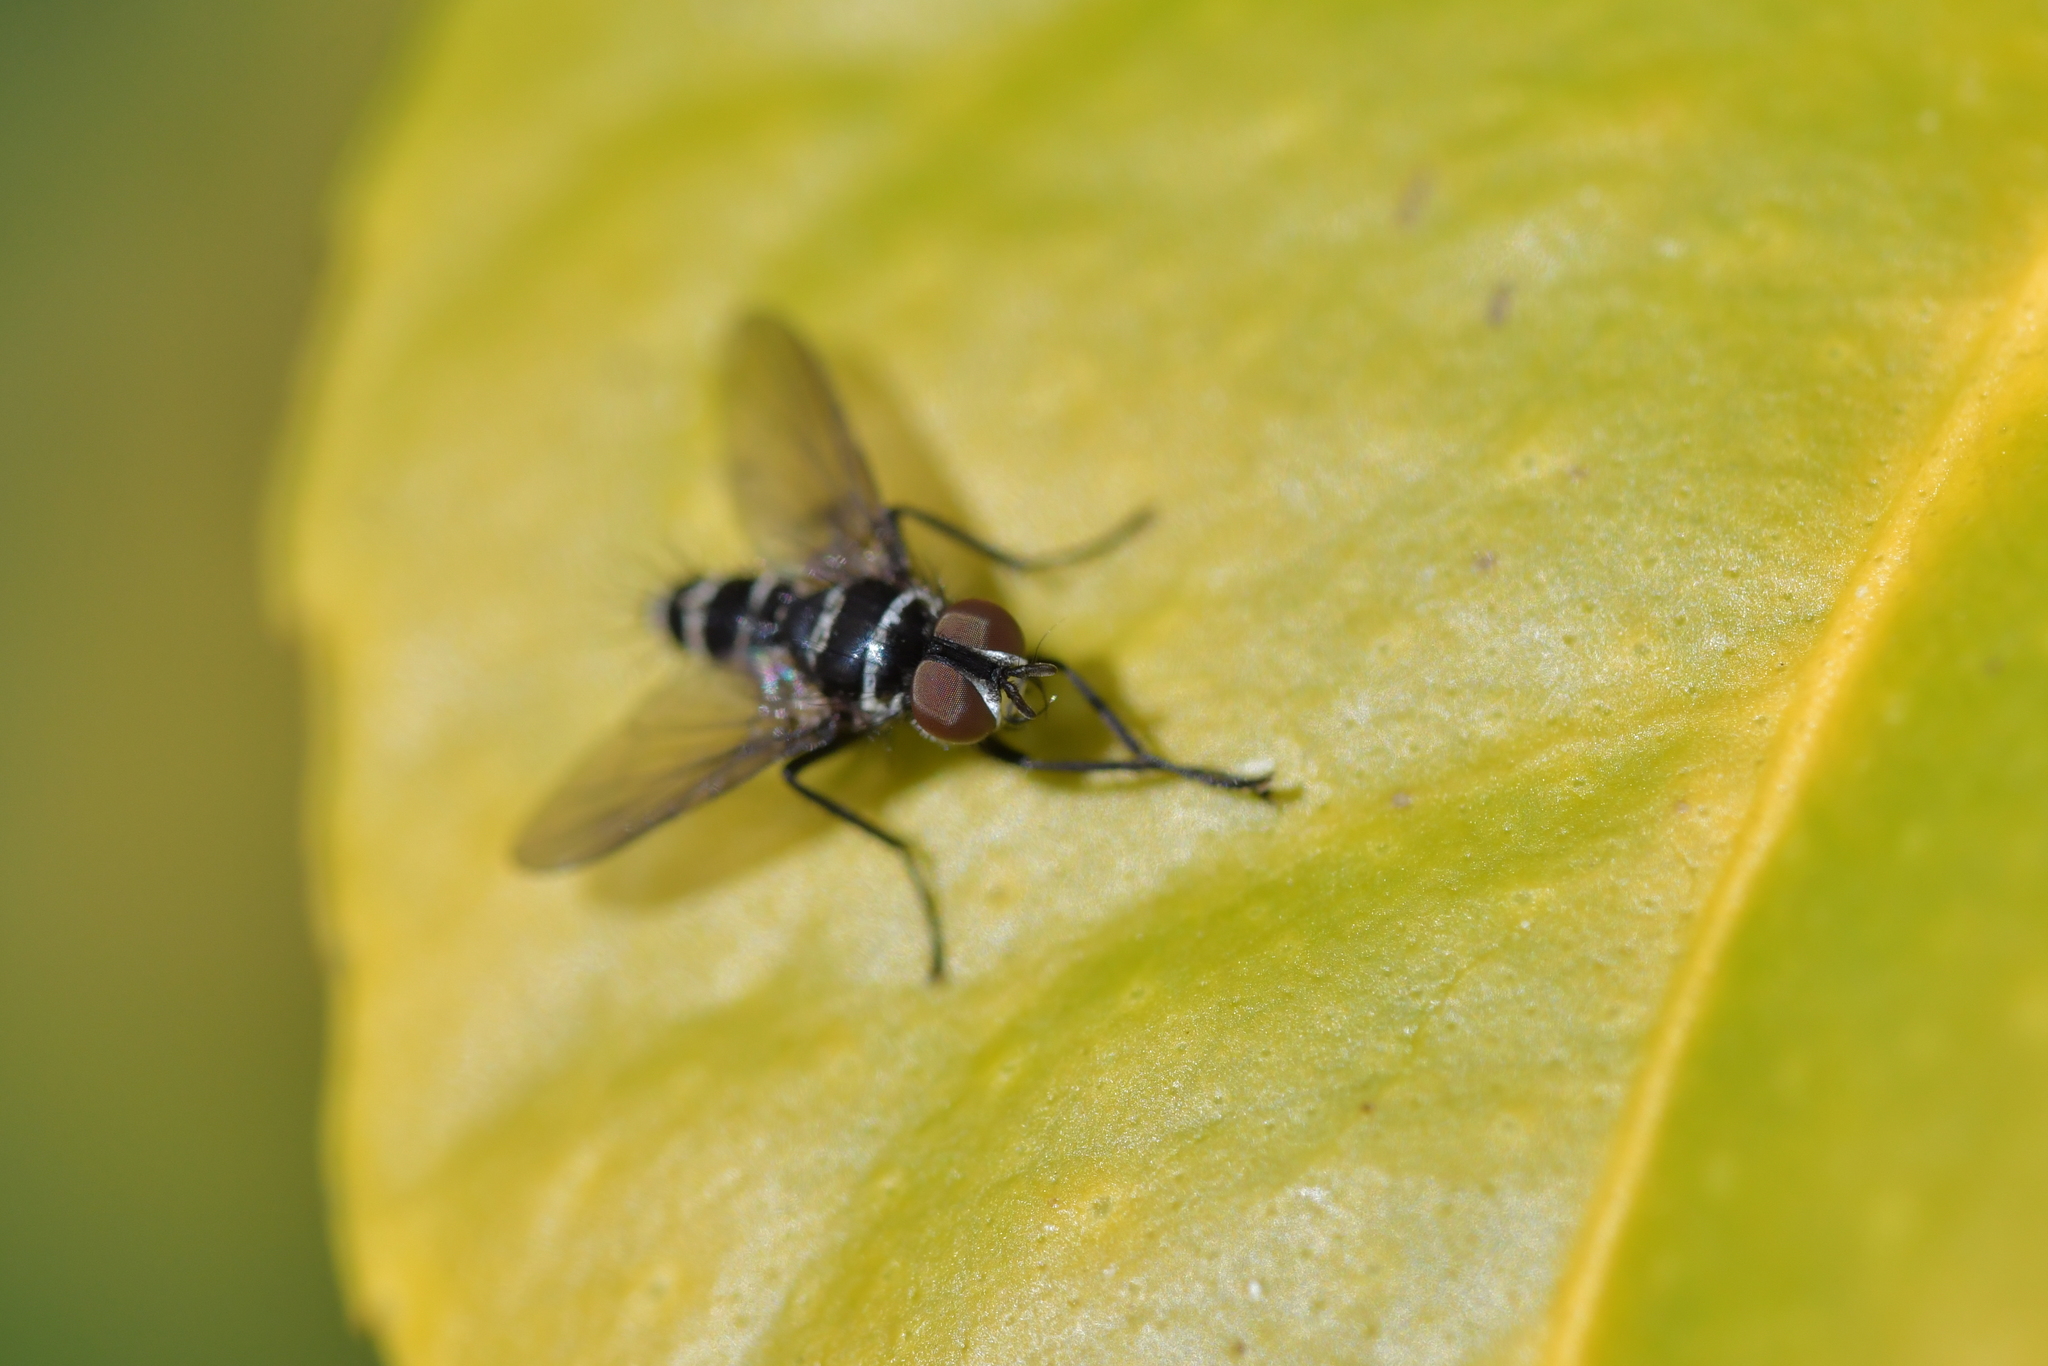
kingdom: Animalia
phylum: Arthropoda
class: Insecta
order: Diptera
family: Tachinidae
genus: Trigonospila
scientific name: Trigonospila brevifacies
